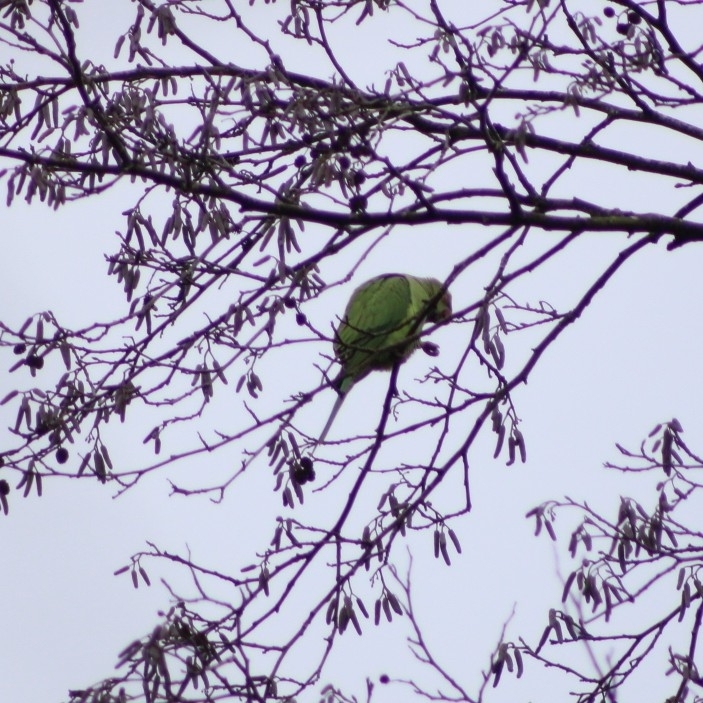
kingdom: Animalia
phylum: Chordata
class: Aves
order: Psittaciformes
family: Psittacidae
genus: Psittacula
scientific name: Psittacula krameri
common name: Rose-ringed parakeet
